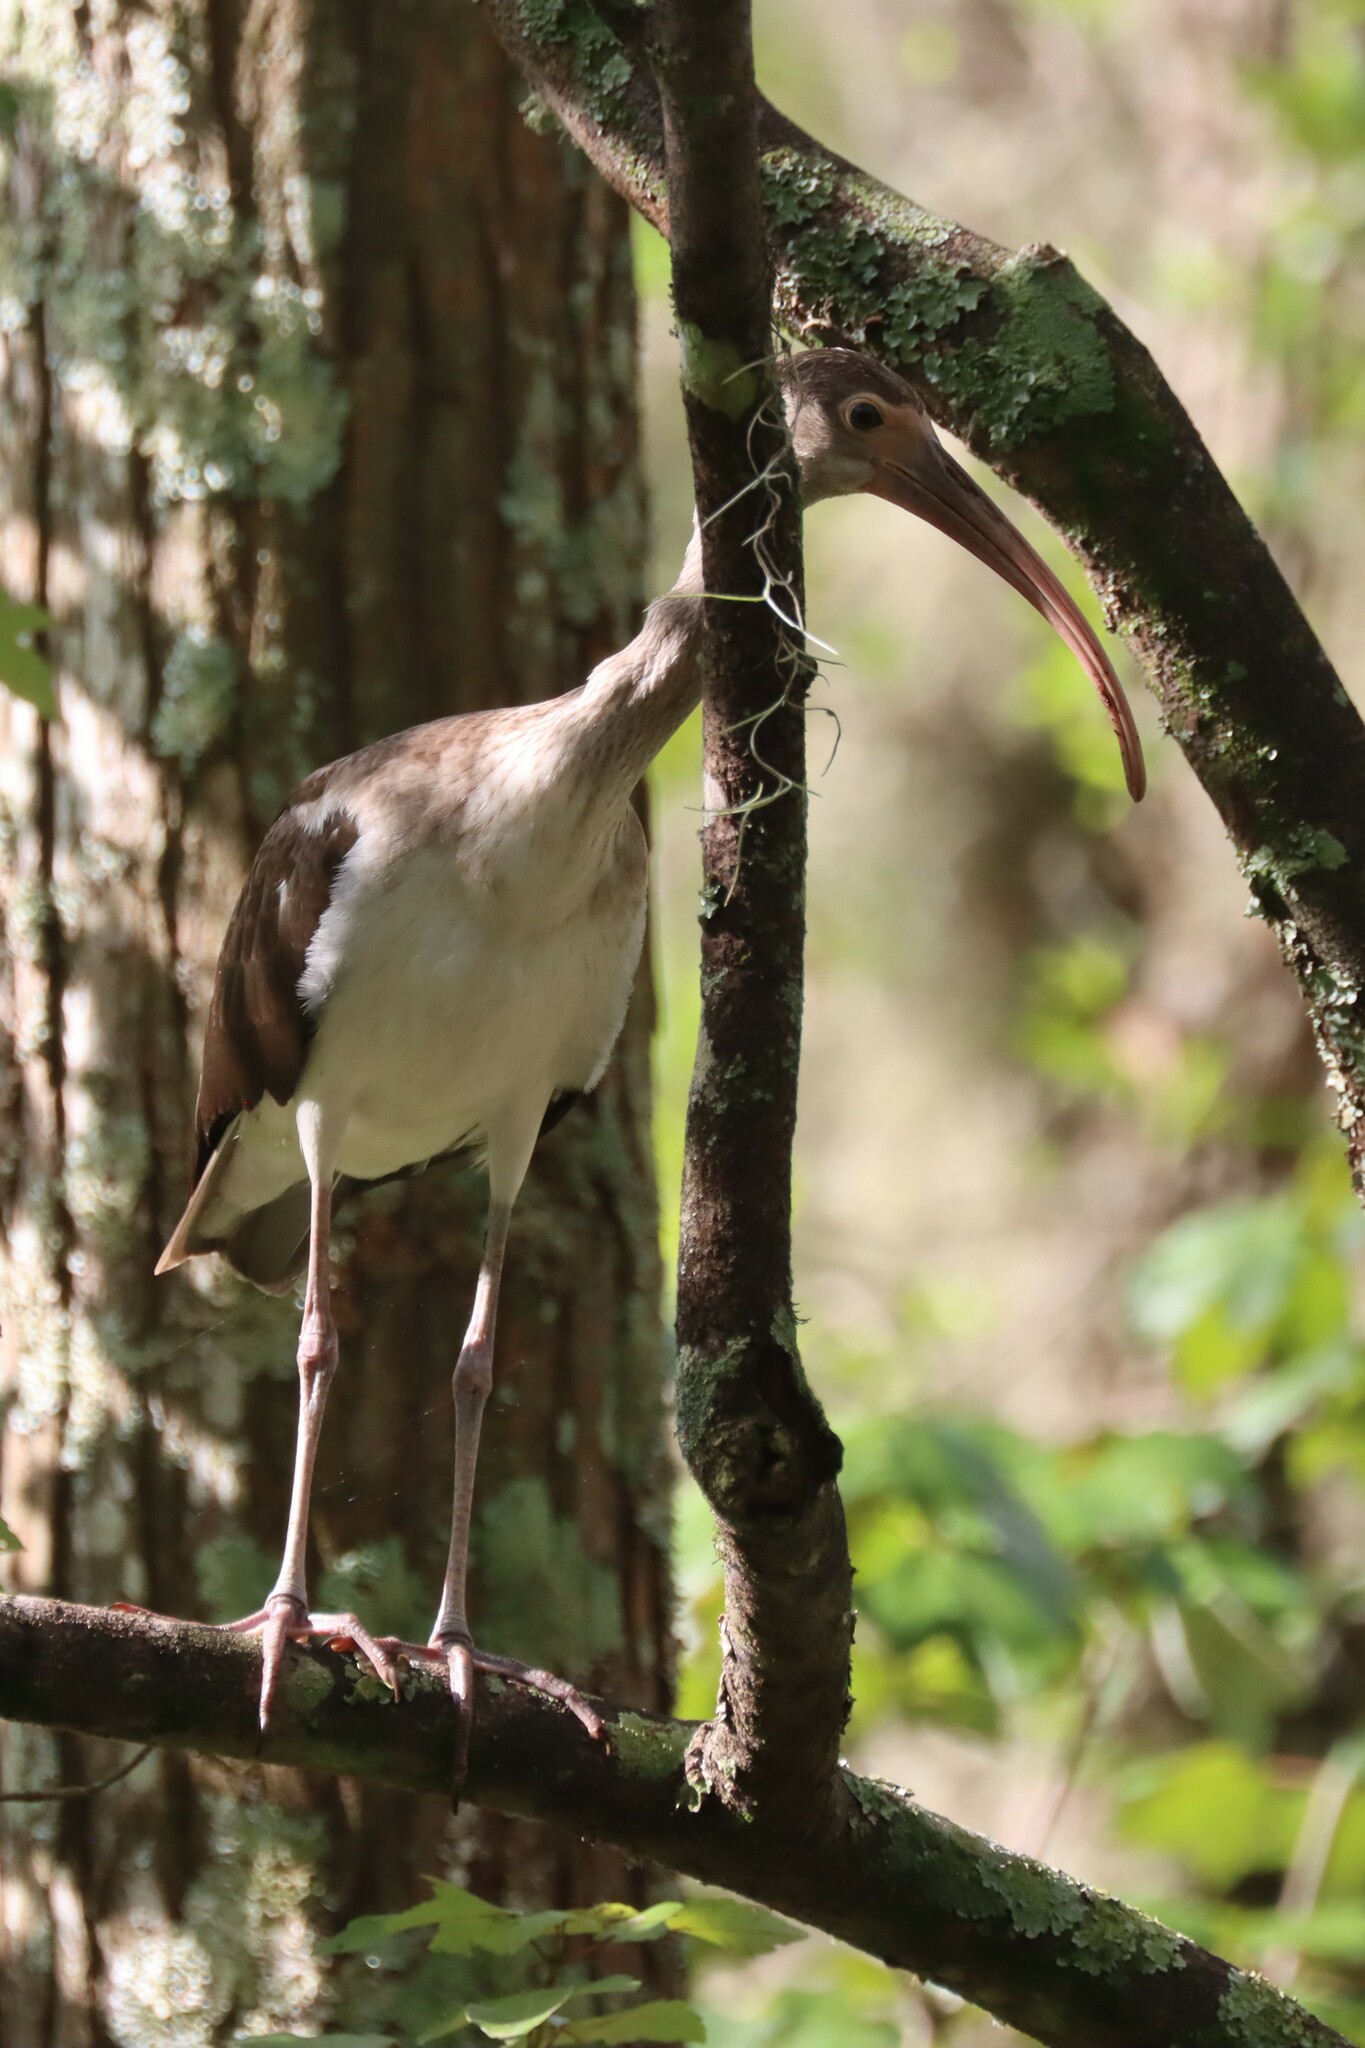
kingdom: Animalia
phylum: Chordata
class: Aves
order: Pelecaniformes
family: Threskiornithidae
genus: Eudocimus
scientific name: Eudocimus albus
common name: White ibis
